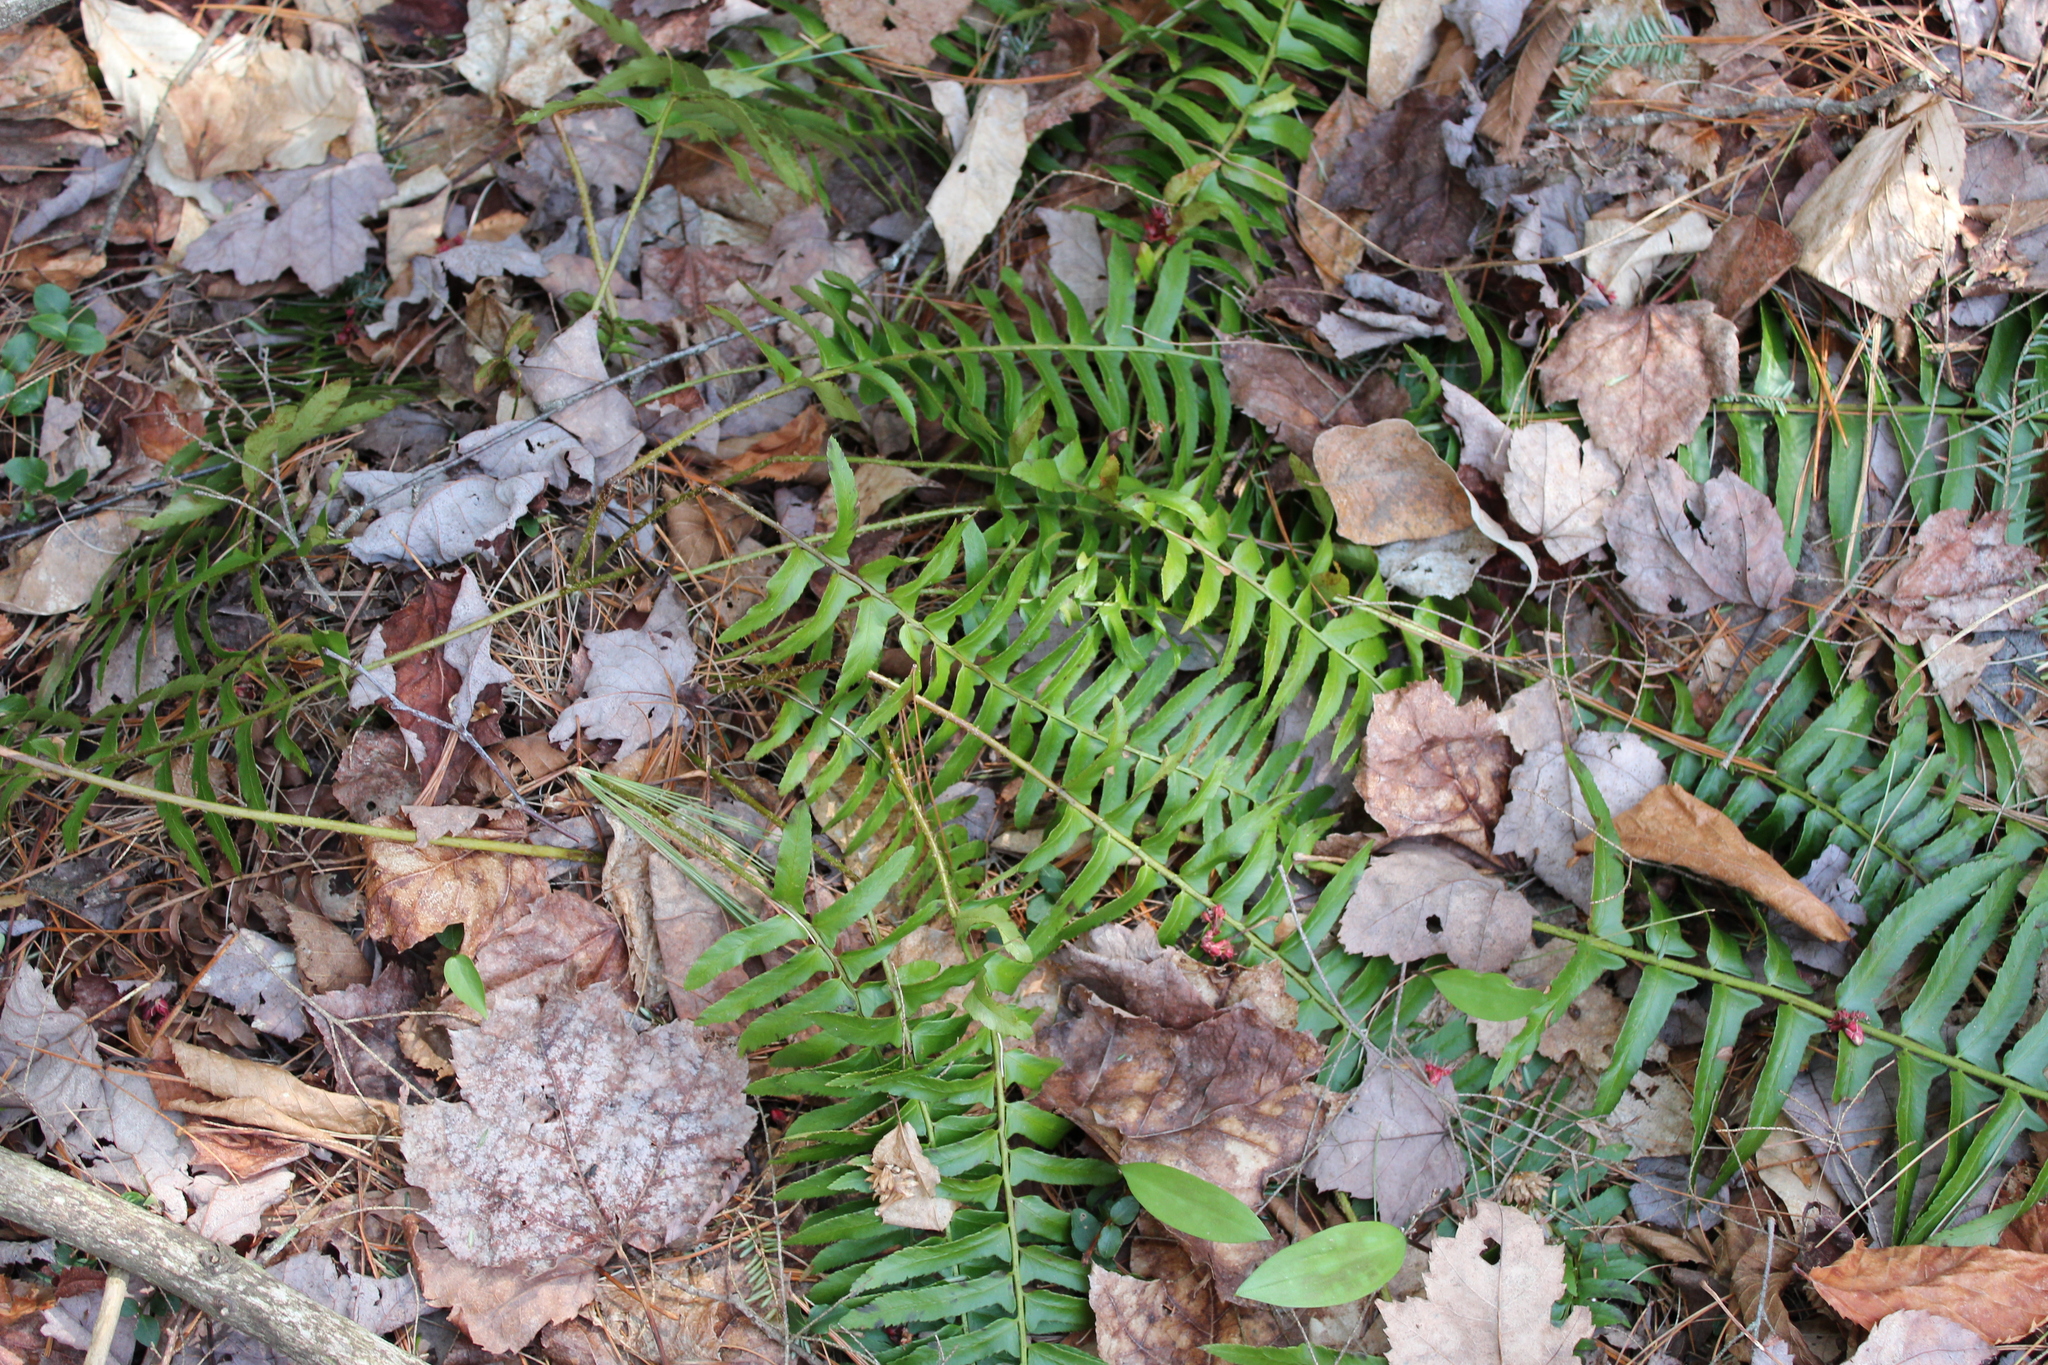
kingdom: Plantae
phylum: Tracheophyta
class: Polypodiopsida
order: Polypodiales
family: Dryopteridaceae
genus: Polystichum
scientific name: Polystichum acrostichoides
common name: Christmas fern
